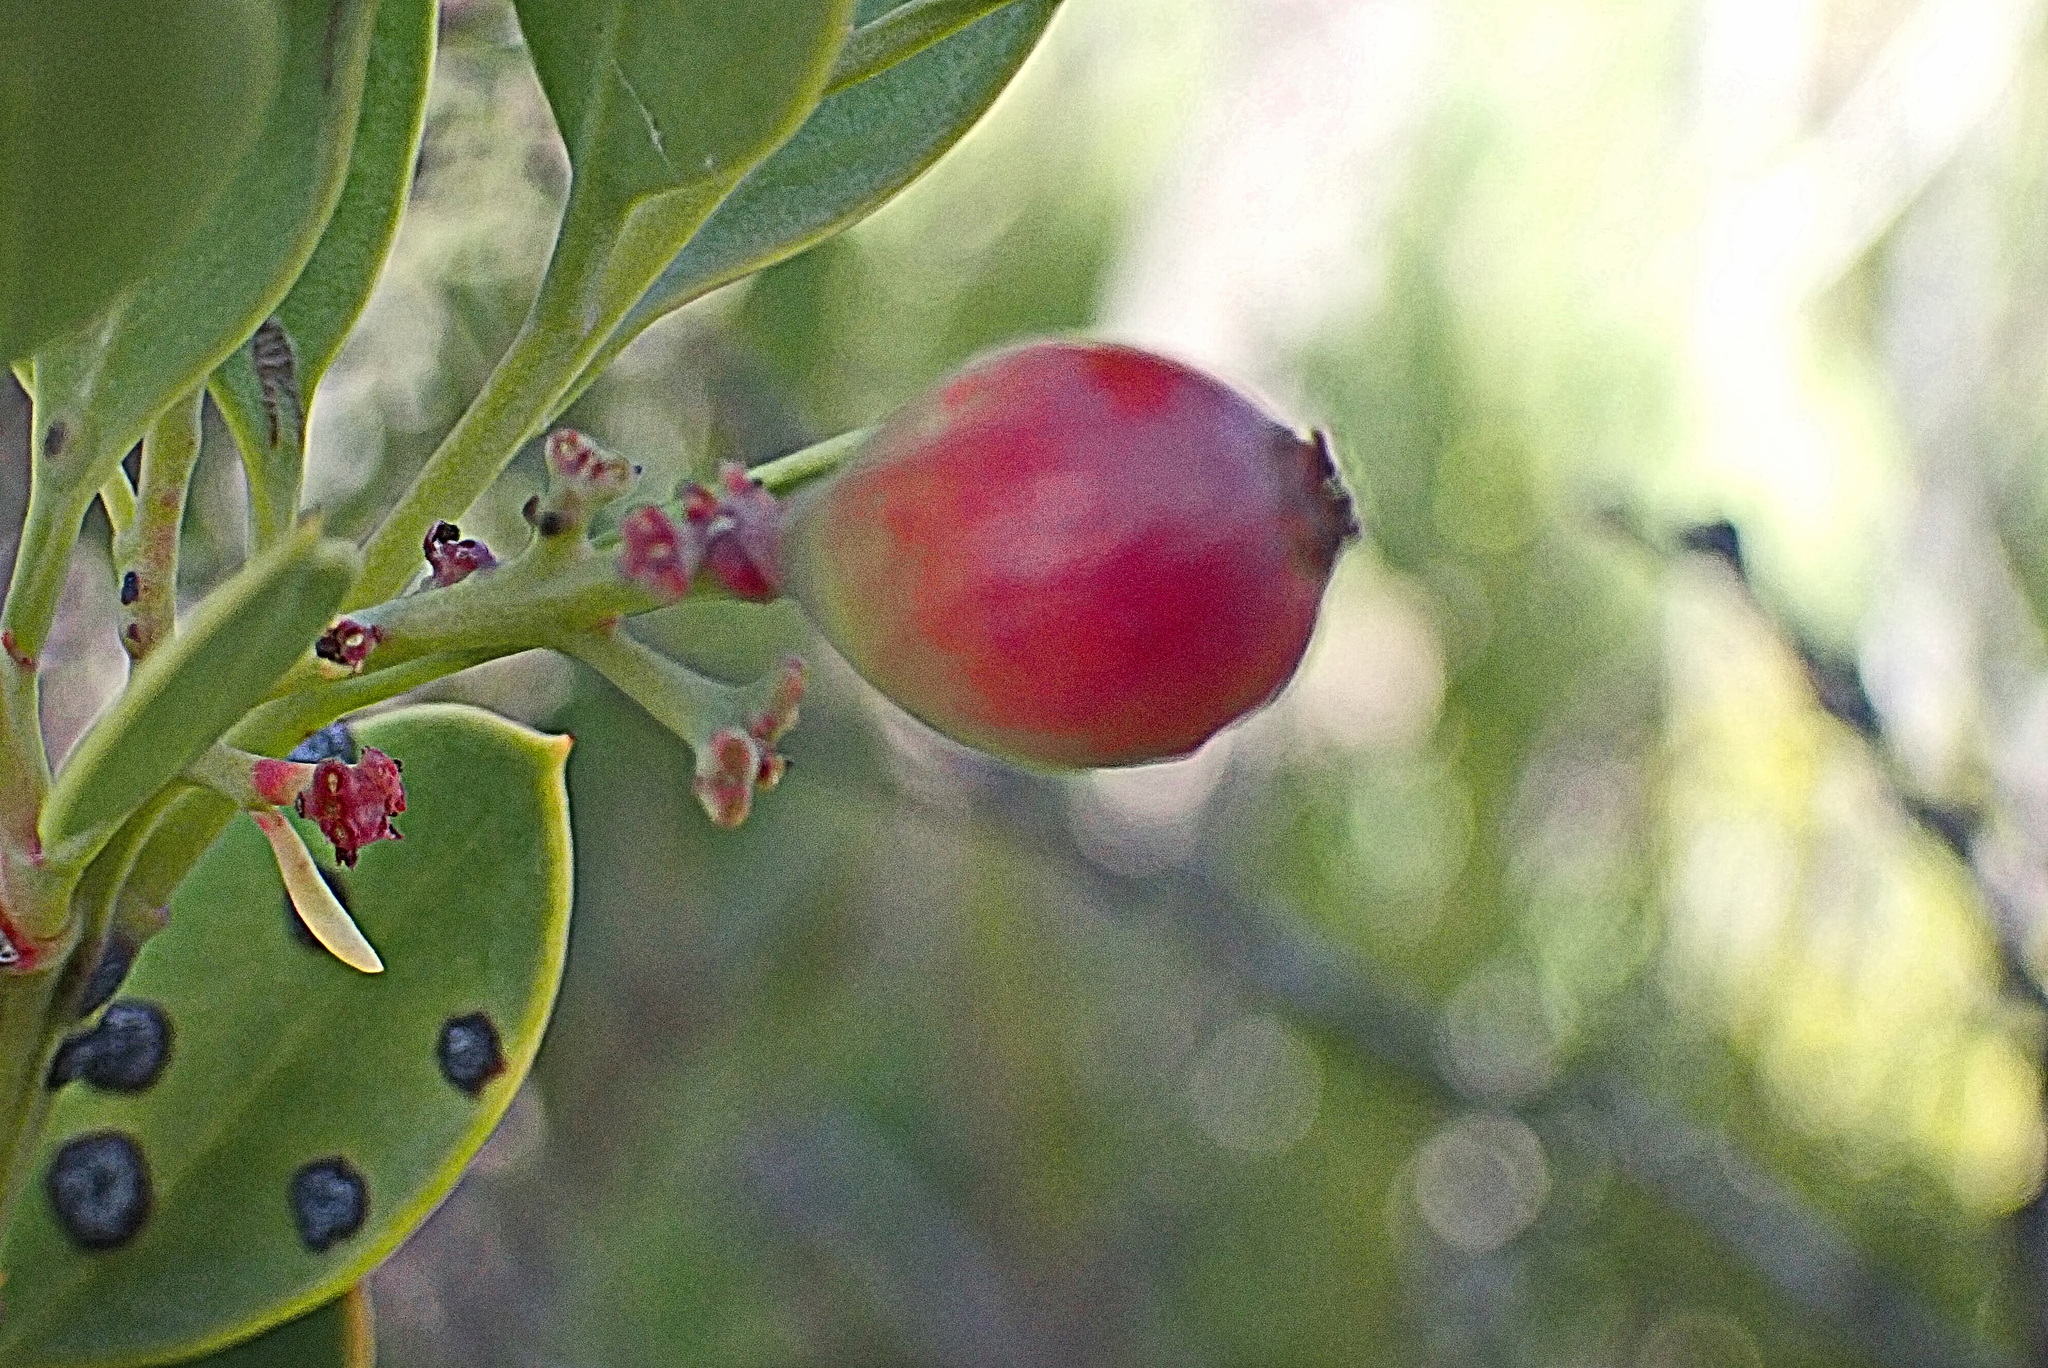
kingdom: Plantae
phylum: Tracheophyta
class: Magnoliopsida
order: Santalales
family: Santalaceae
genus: Osyris
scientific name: Osyris compressa
